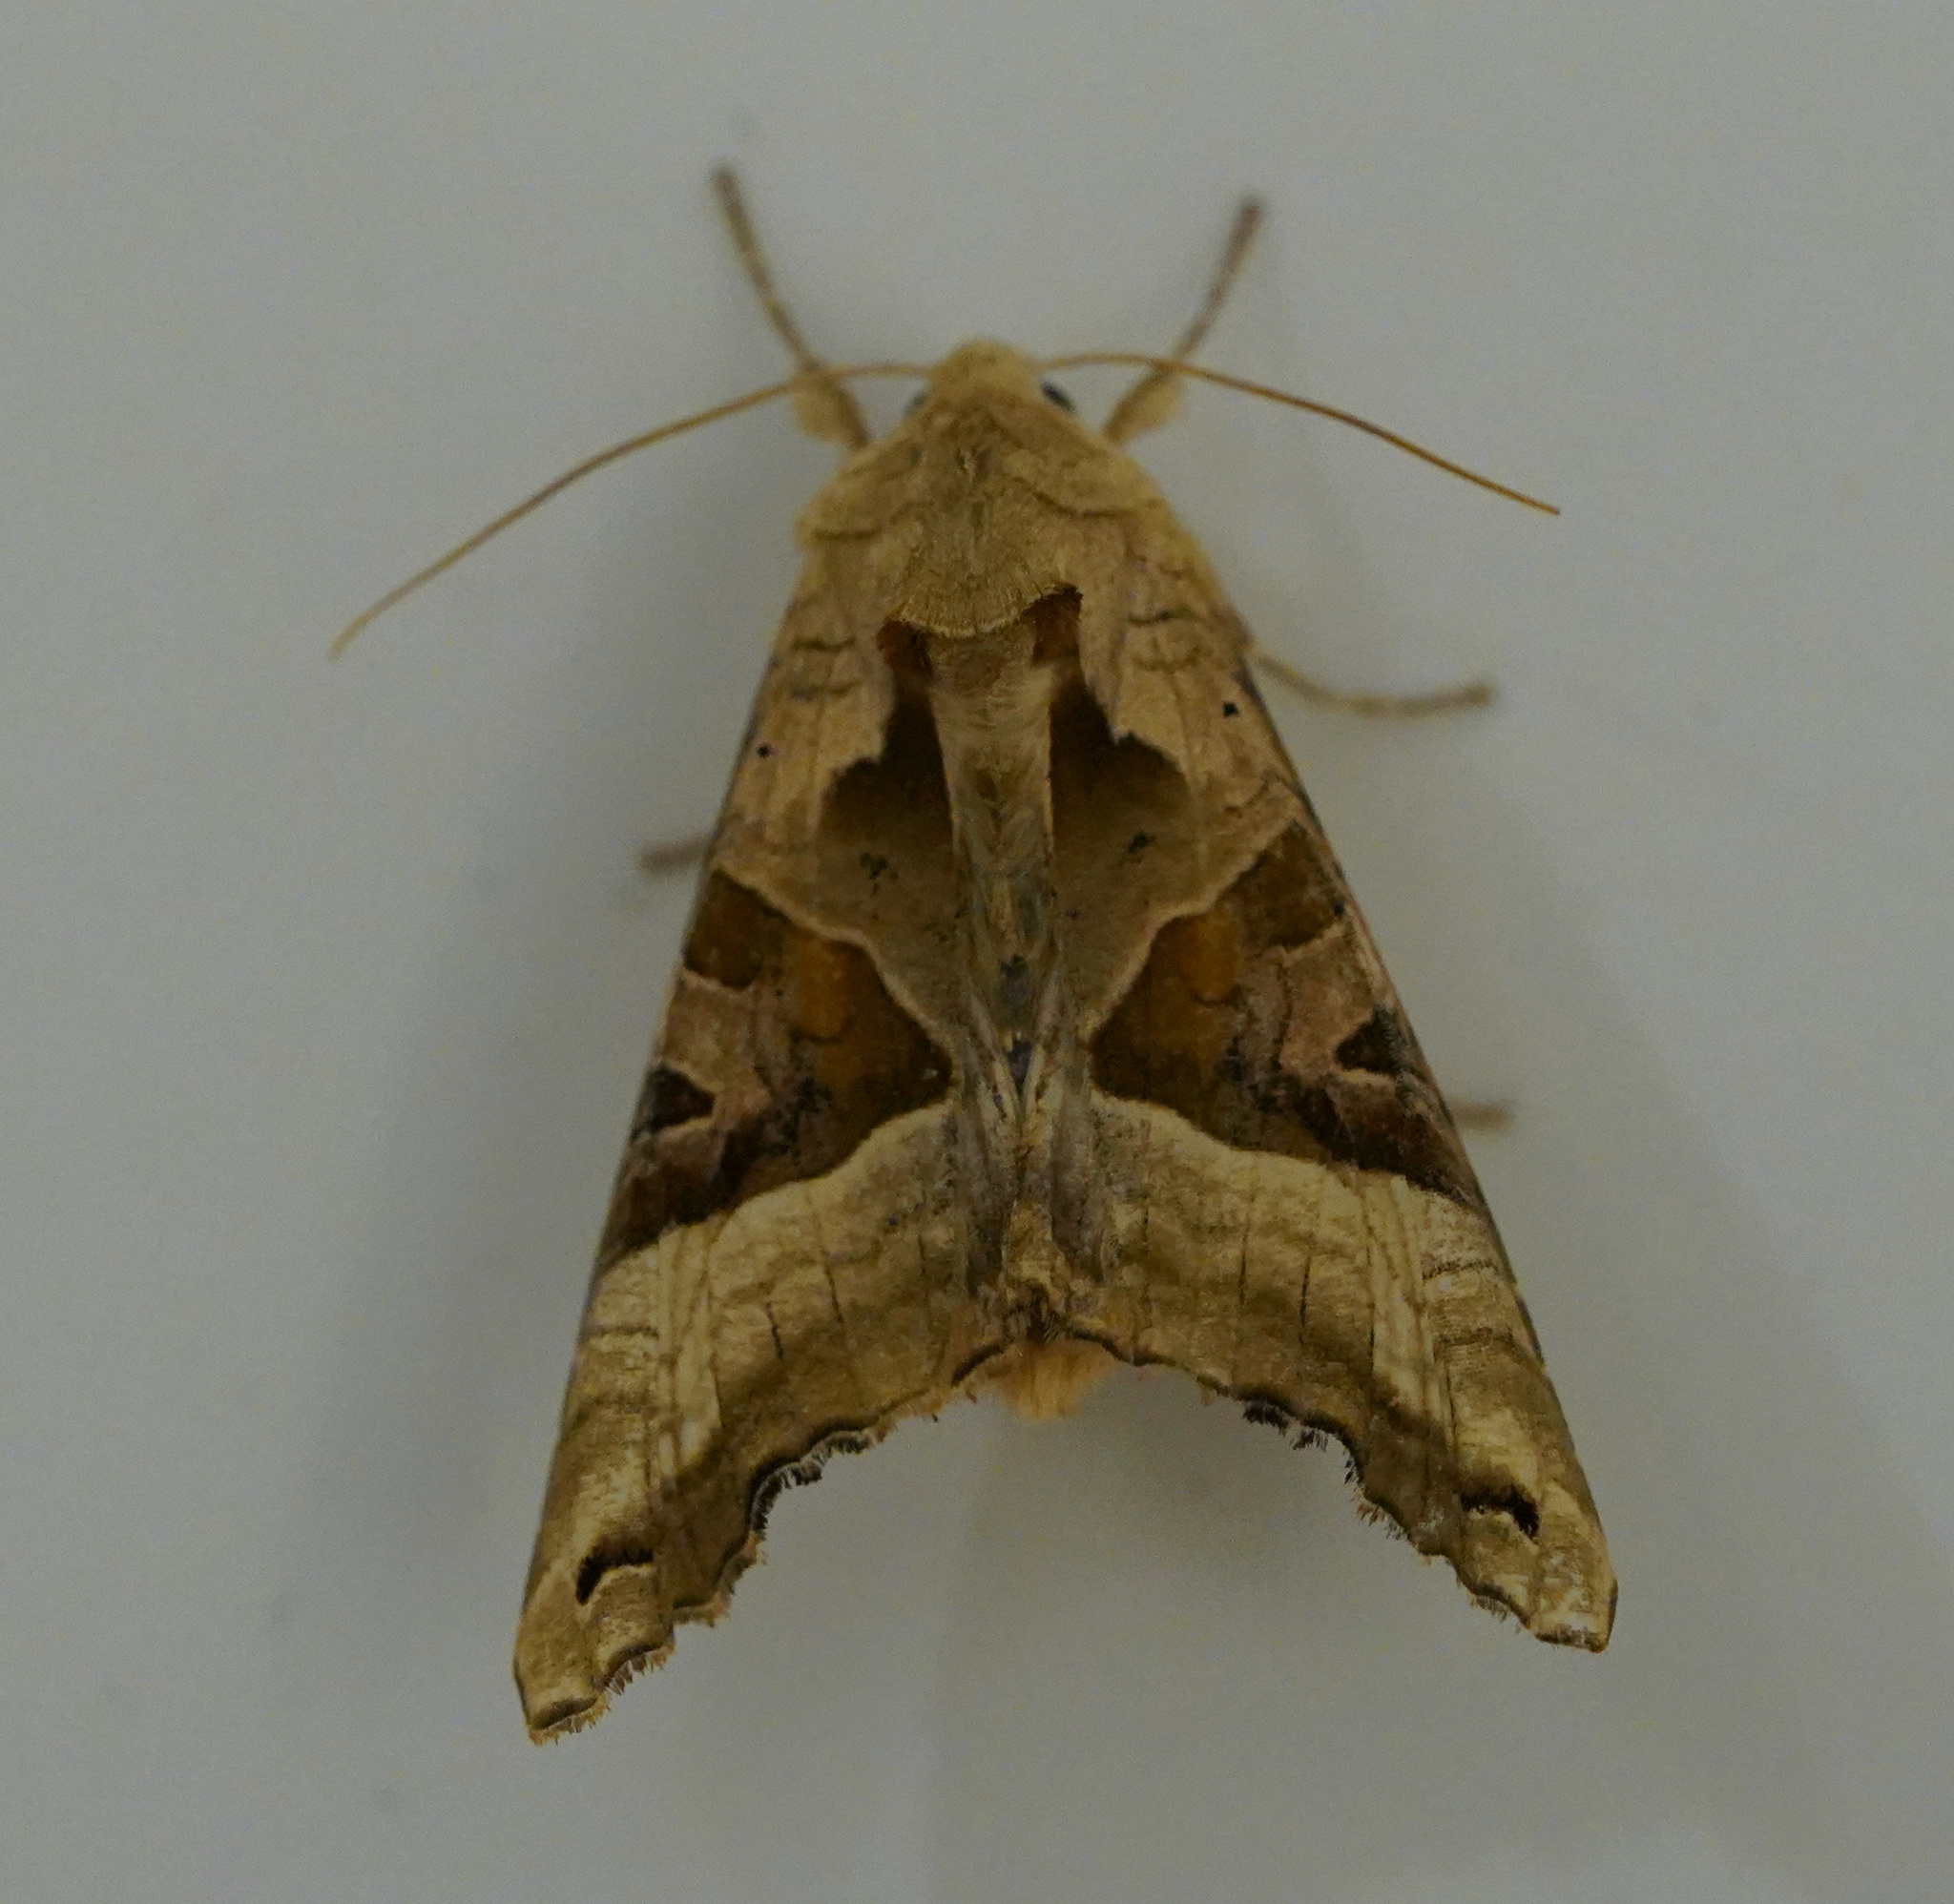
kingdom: Animalia
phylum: Arthropoda
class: Insecta
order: Lepidoptera
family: Noctuidae
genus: Phlogophora
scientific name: Phlogophora meticulosa
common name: Angle shades
